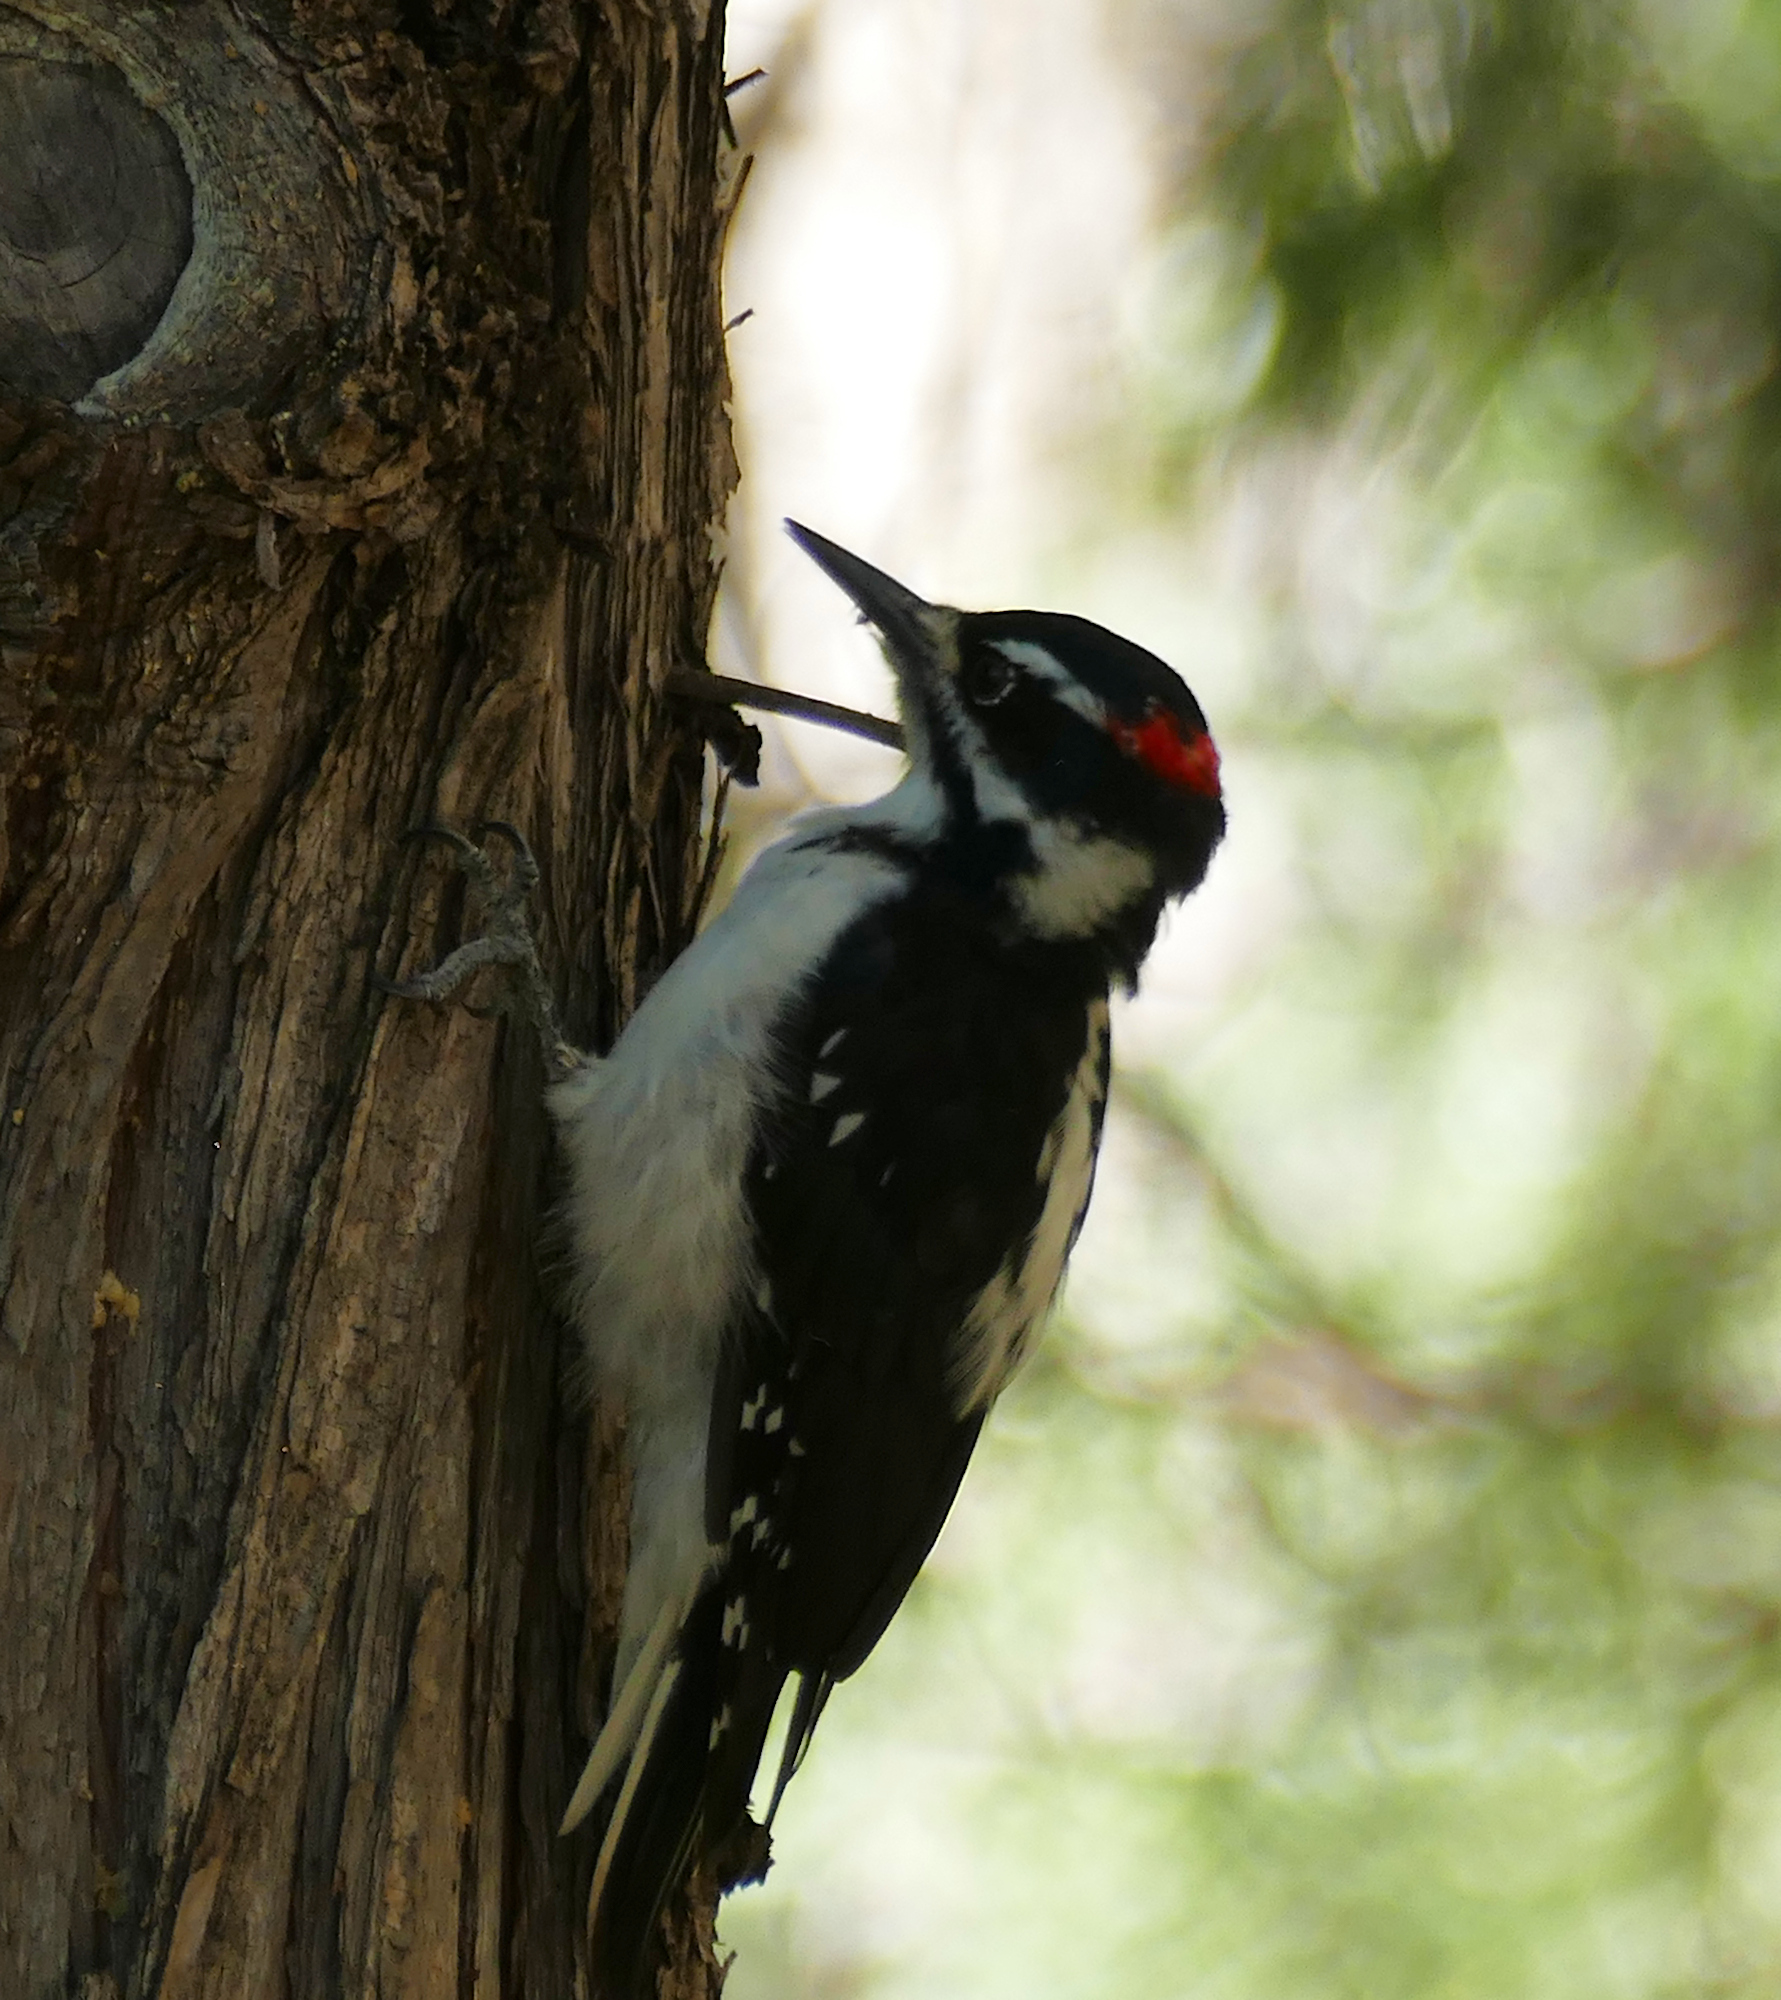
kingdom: Animalia
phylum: Chordata
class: Aves
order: Piciformes
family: Picidae
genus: Leuconotopicus
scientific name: Leuconotopicus villosus
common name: Hairy woodpecker
